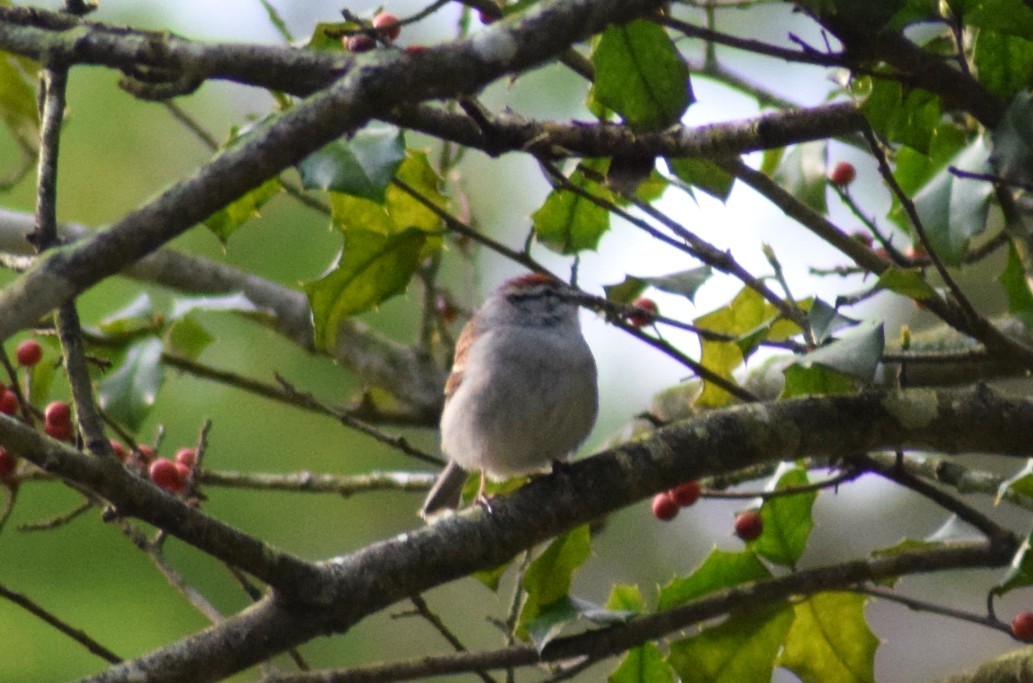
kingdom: Animalia
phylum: Chordata
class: Aves
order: Passeriformes
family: Passerellidae
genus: Spizella
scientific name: Spizella passerina
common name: Chipping sparrow
